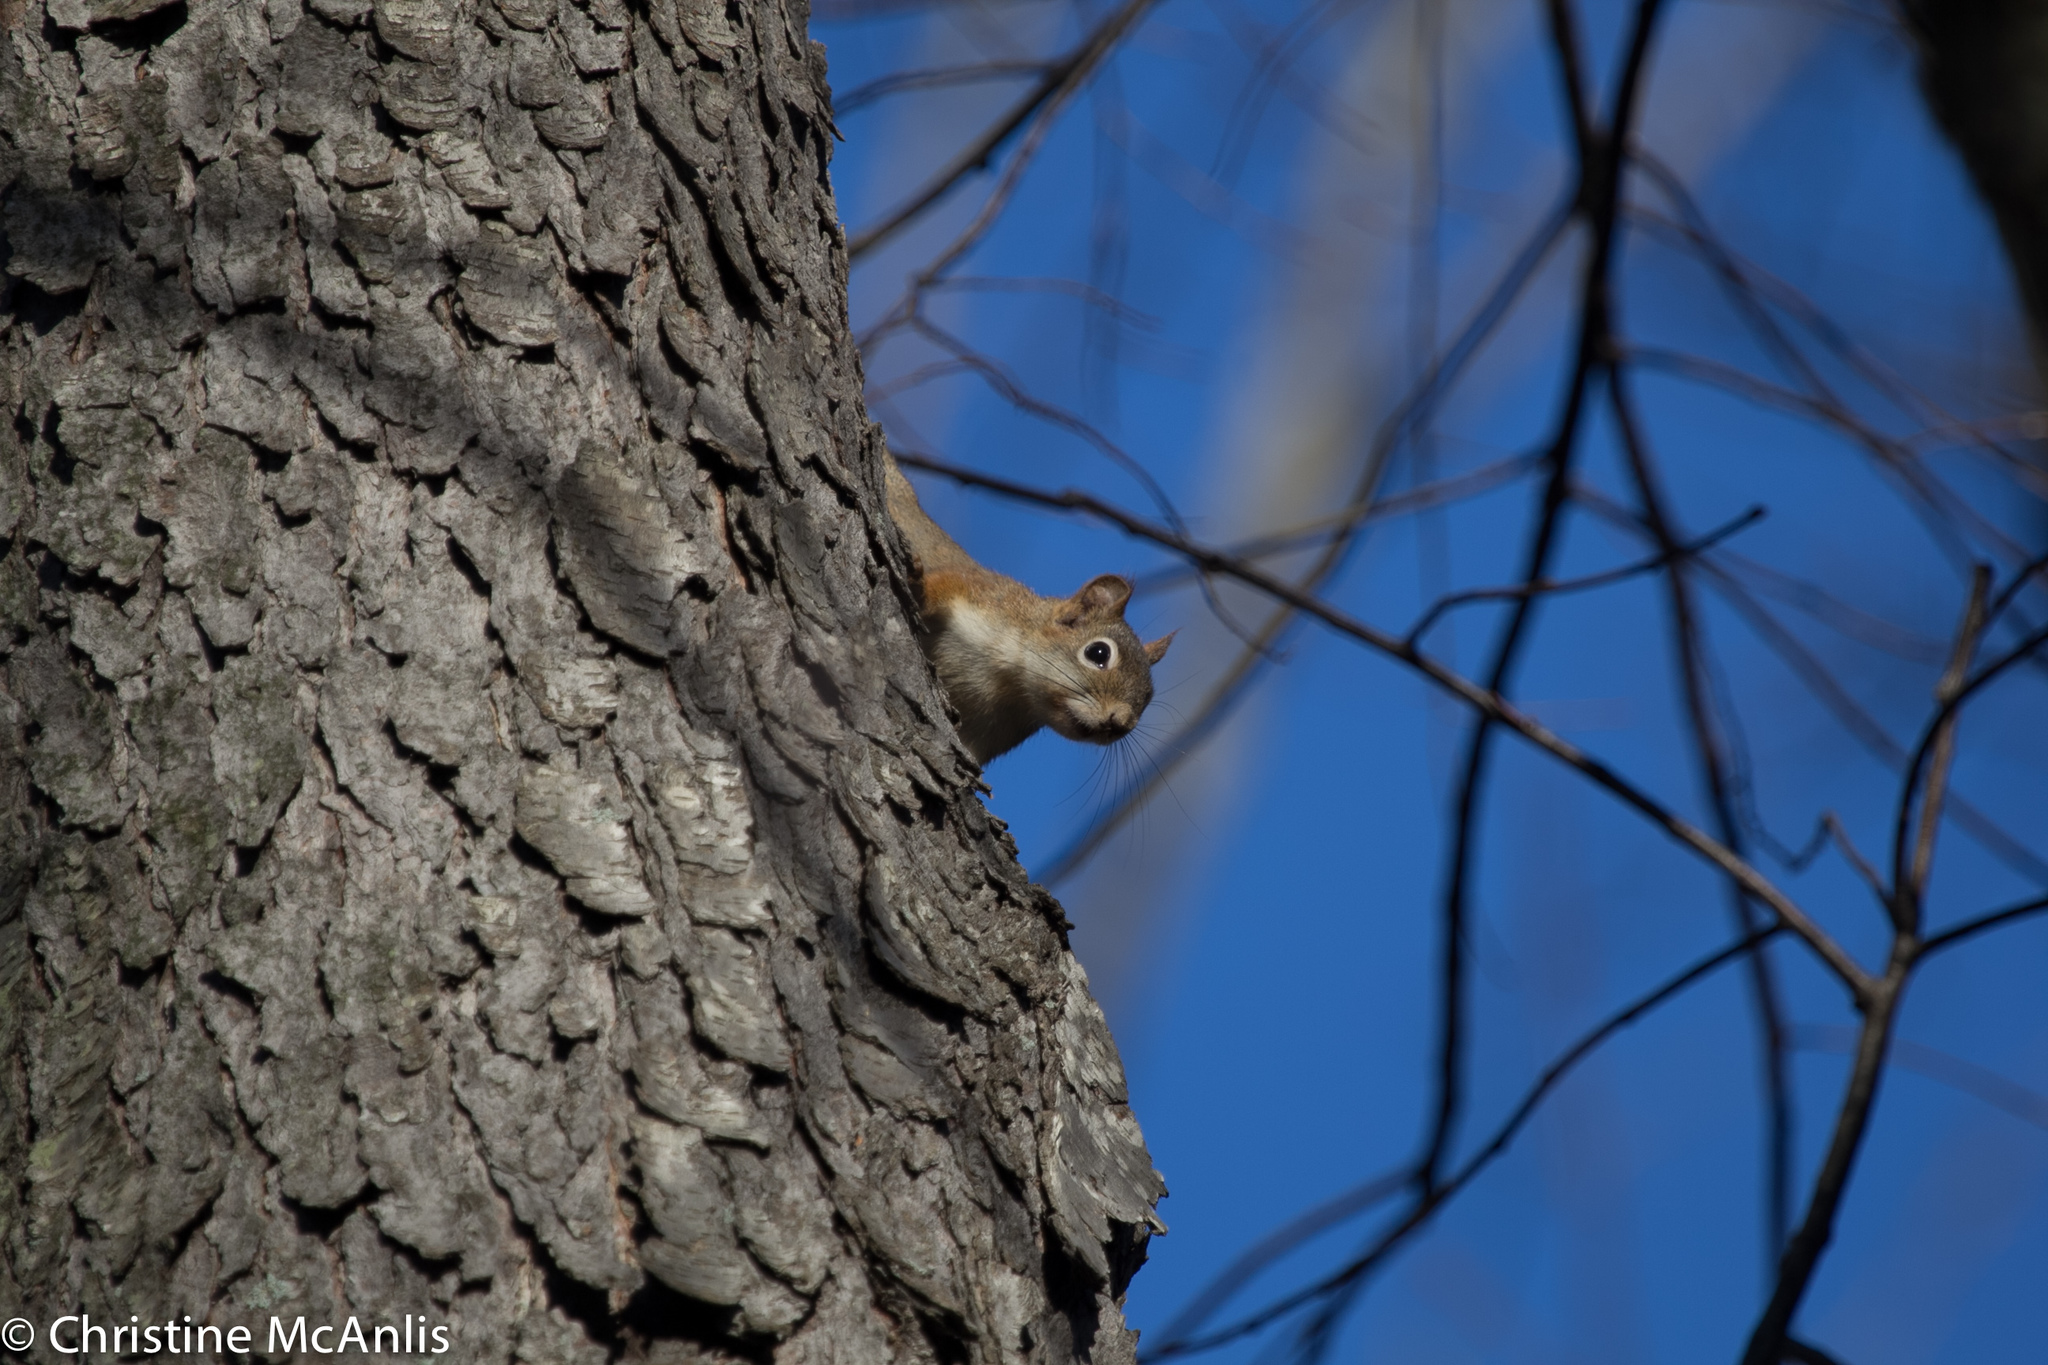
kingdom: Animalia
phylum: Chordata
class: Mammalia
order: Rodentia
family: Sciuridae
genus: Tamiasciurus
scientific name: Tamiasciurus hudsonicus
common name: Red squirrel
